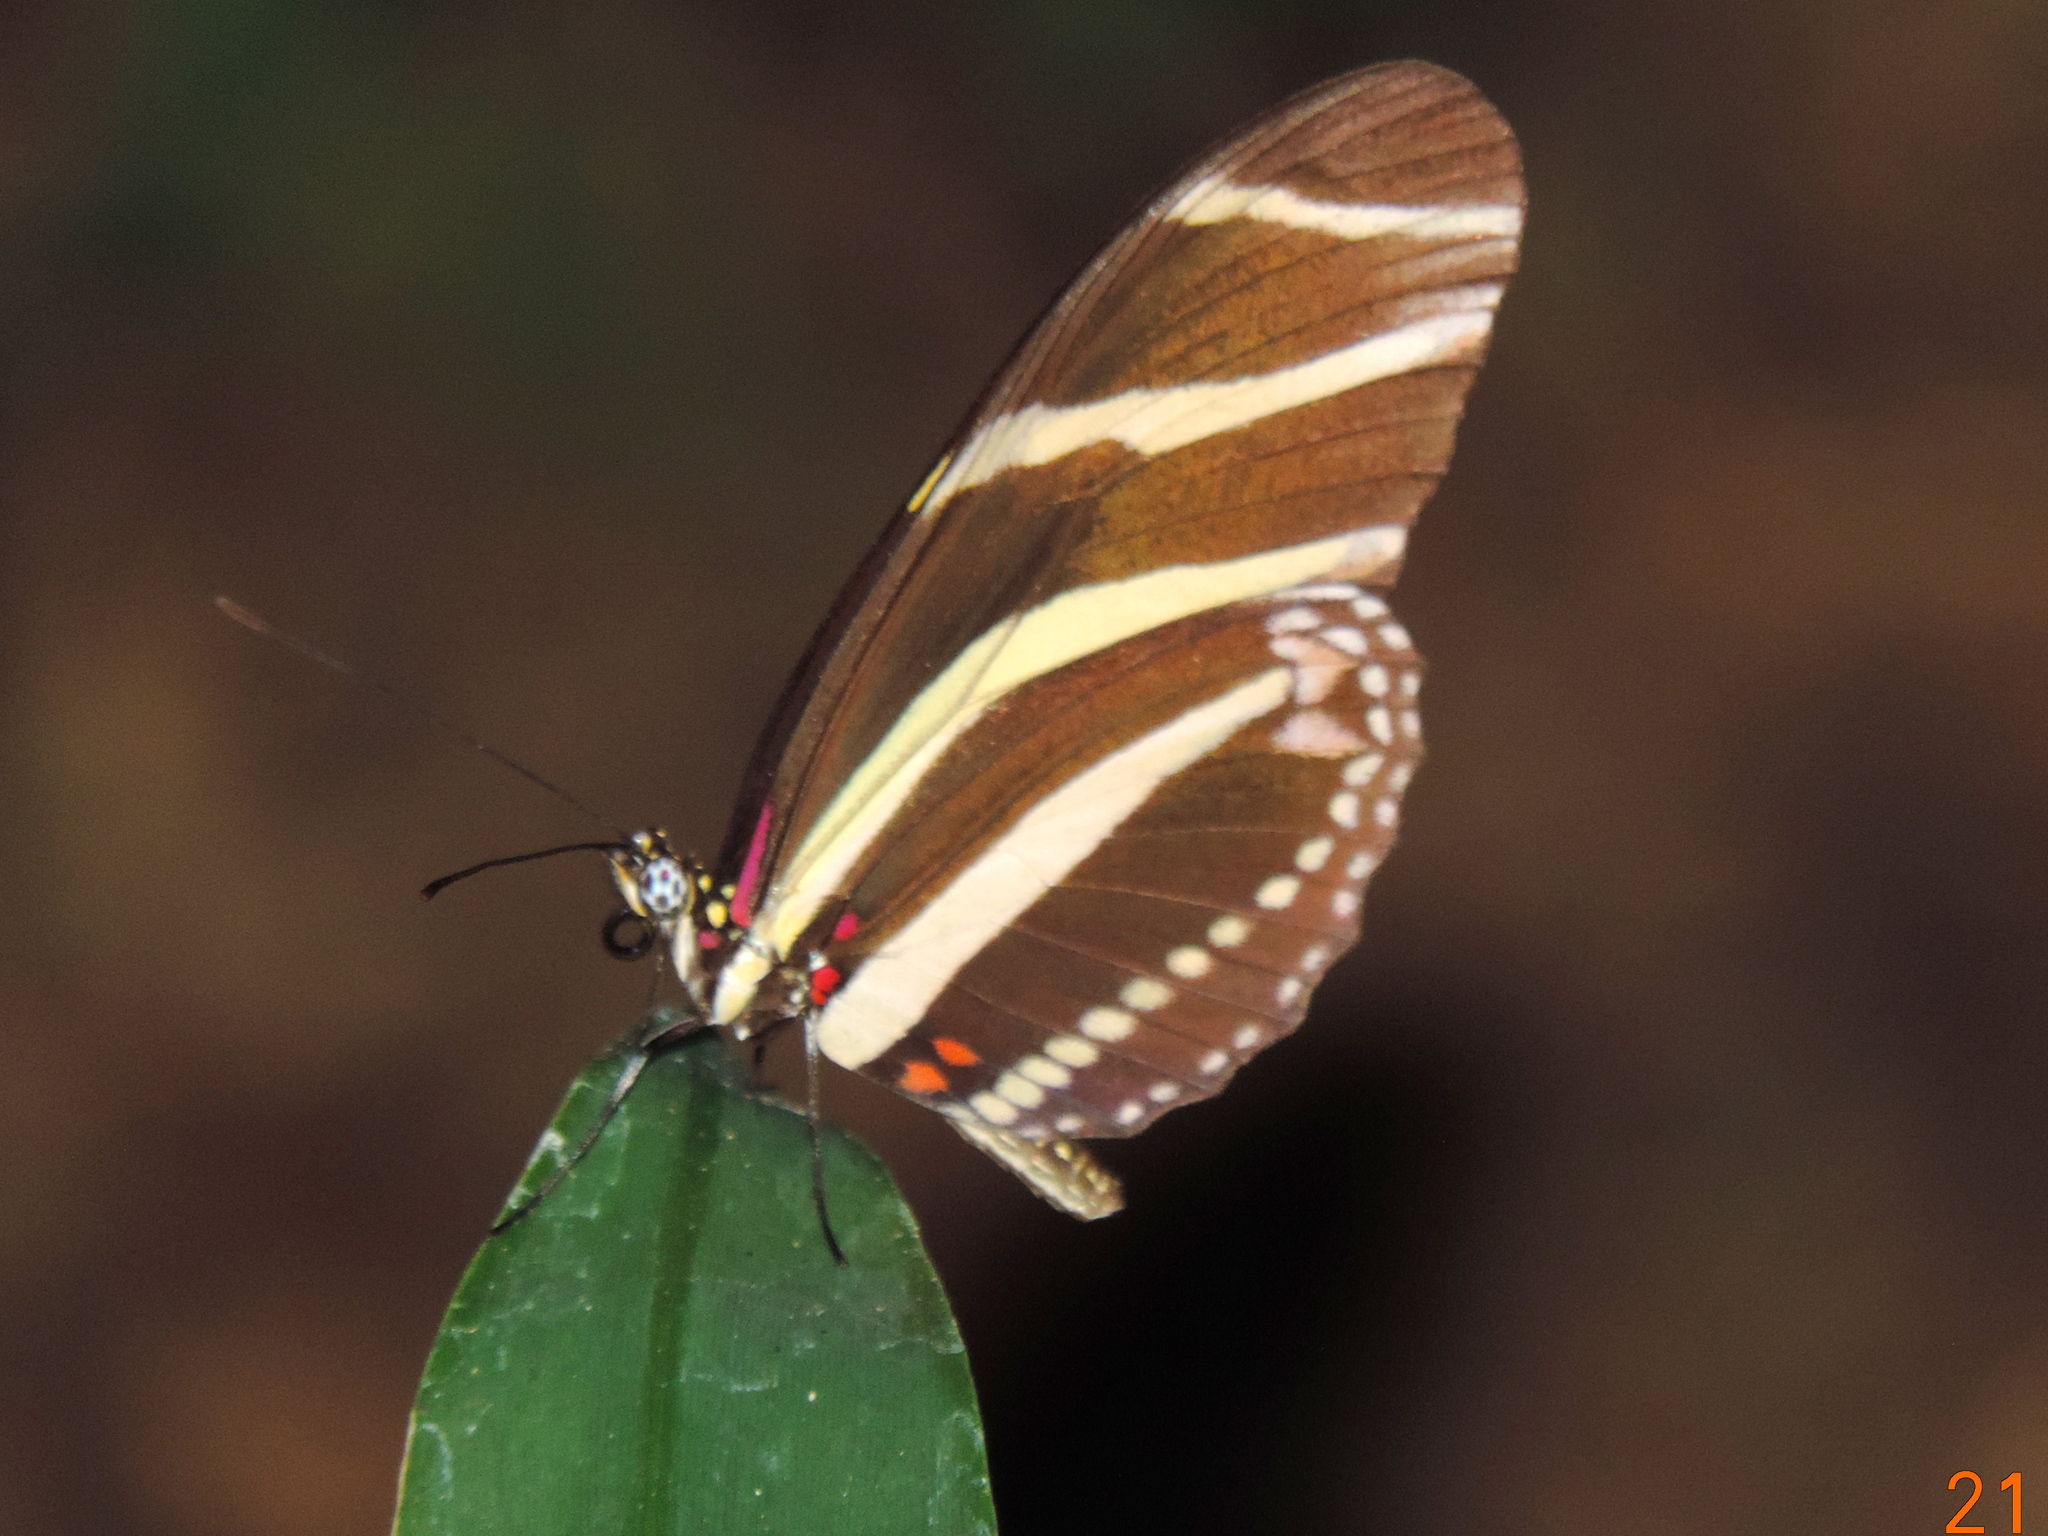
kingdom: Animalia
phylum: Arthropoda
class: Insecta
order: Lepidoptera
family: Nymphalidae
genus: Heliconius
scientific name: Heliconius charithonia
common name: Zebra long wing
